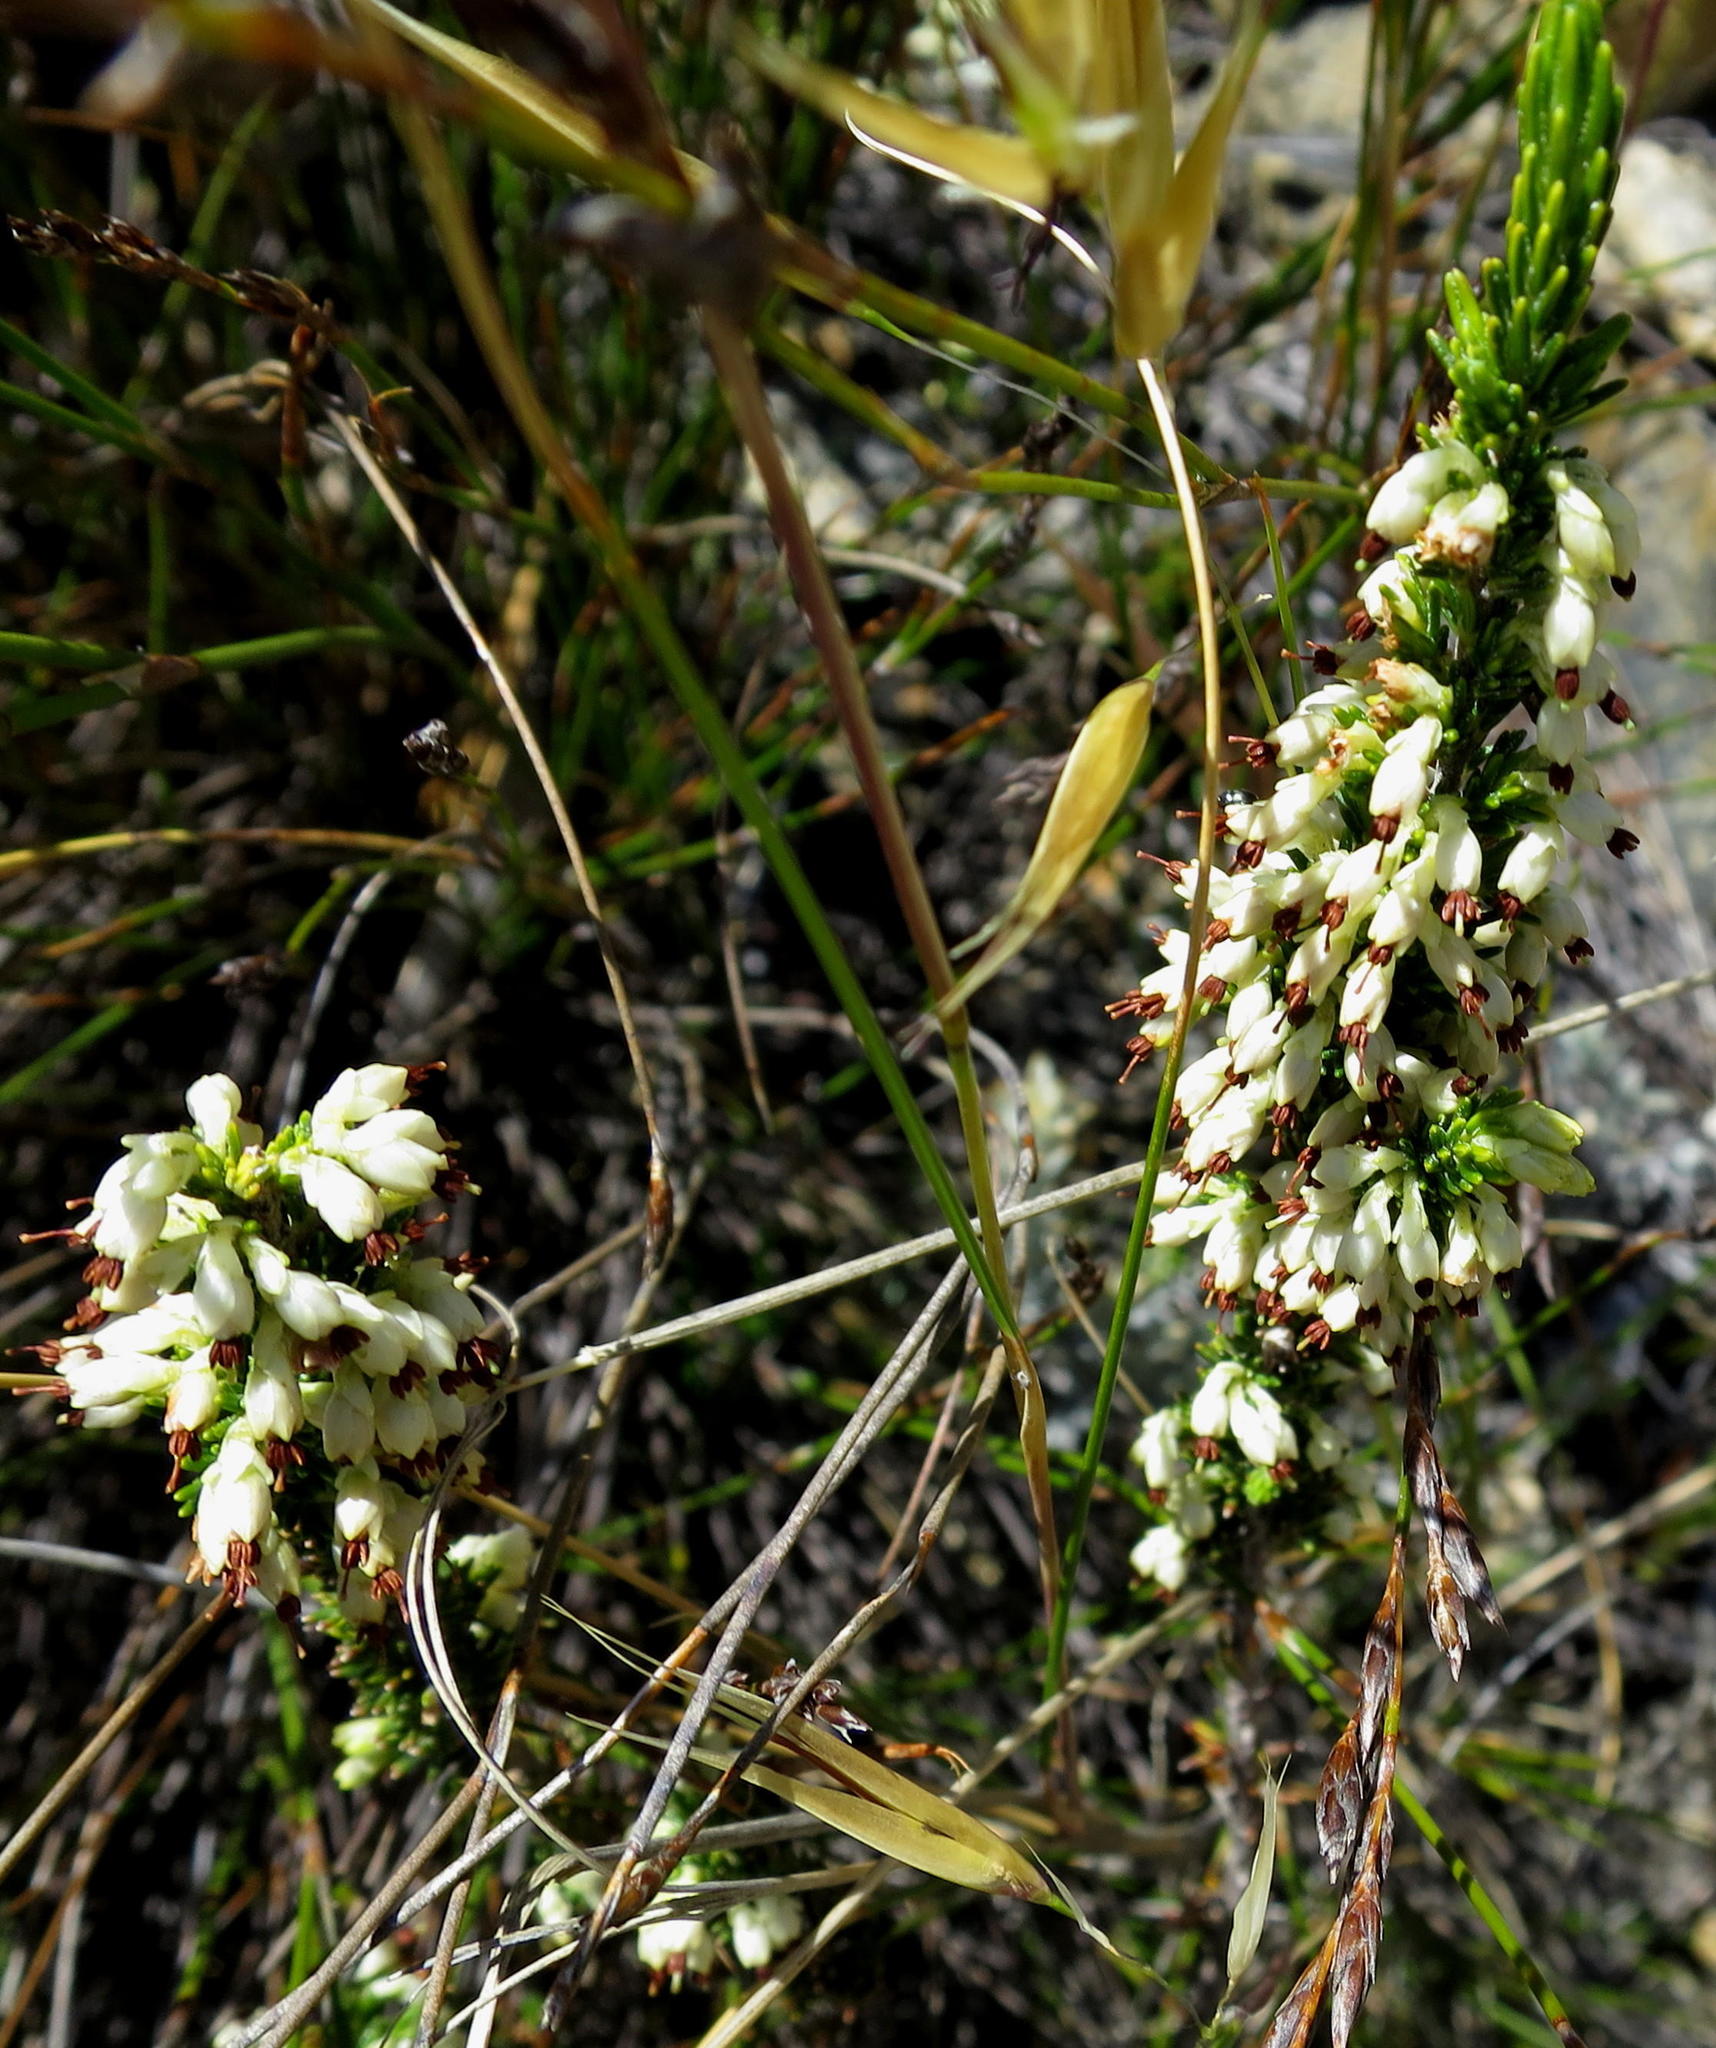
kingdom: Plantae
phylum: Tracheophyta
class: Magnoliopsida
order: Ericales
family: Ericaceae
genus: Erica
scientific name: Erica imbricata
